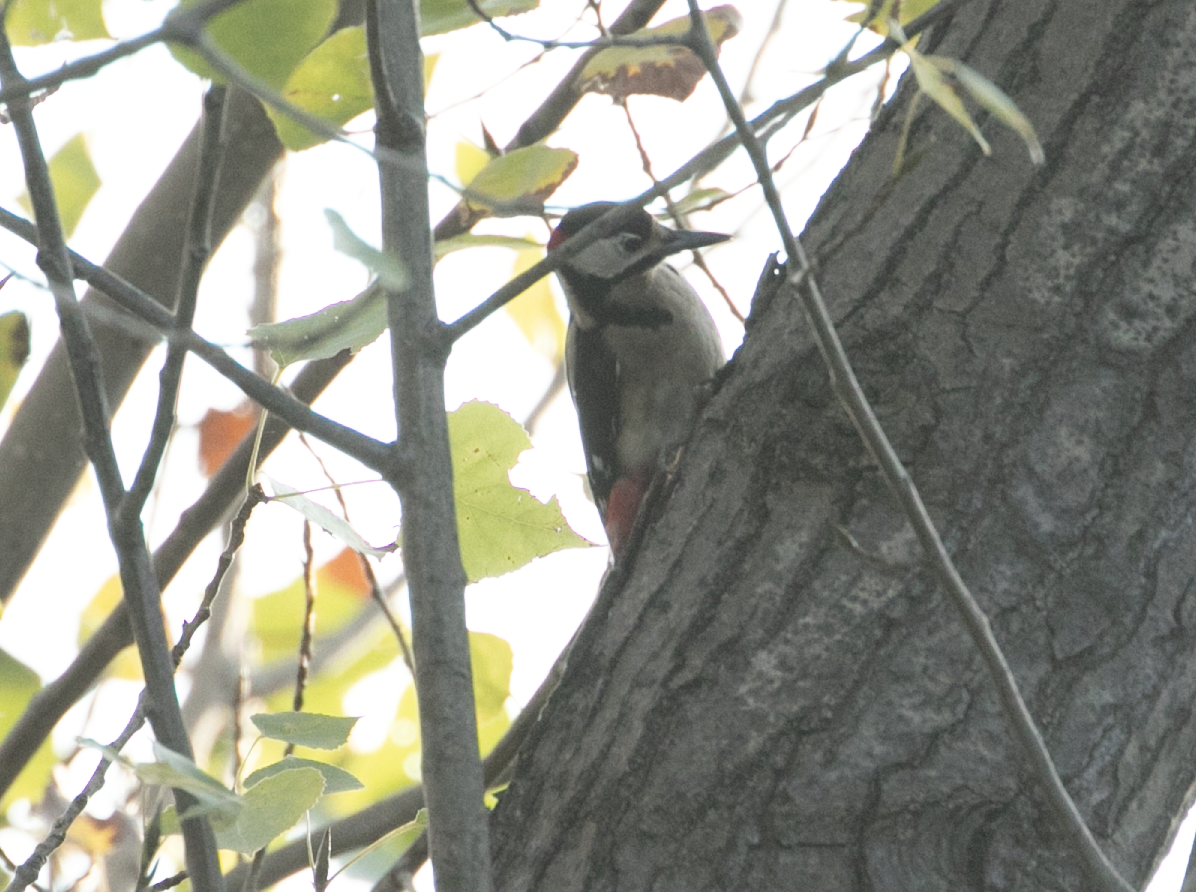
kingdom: Animalia
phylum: Chordata
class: Aves
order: Piciformes
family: Picidae
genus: Dendrocopos
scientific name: Dendrocopos major
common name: Great spotted woodpecker
